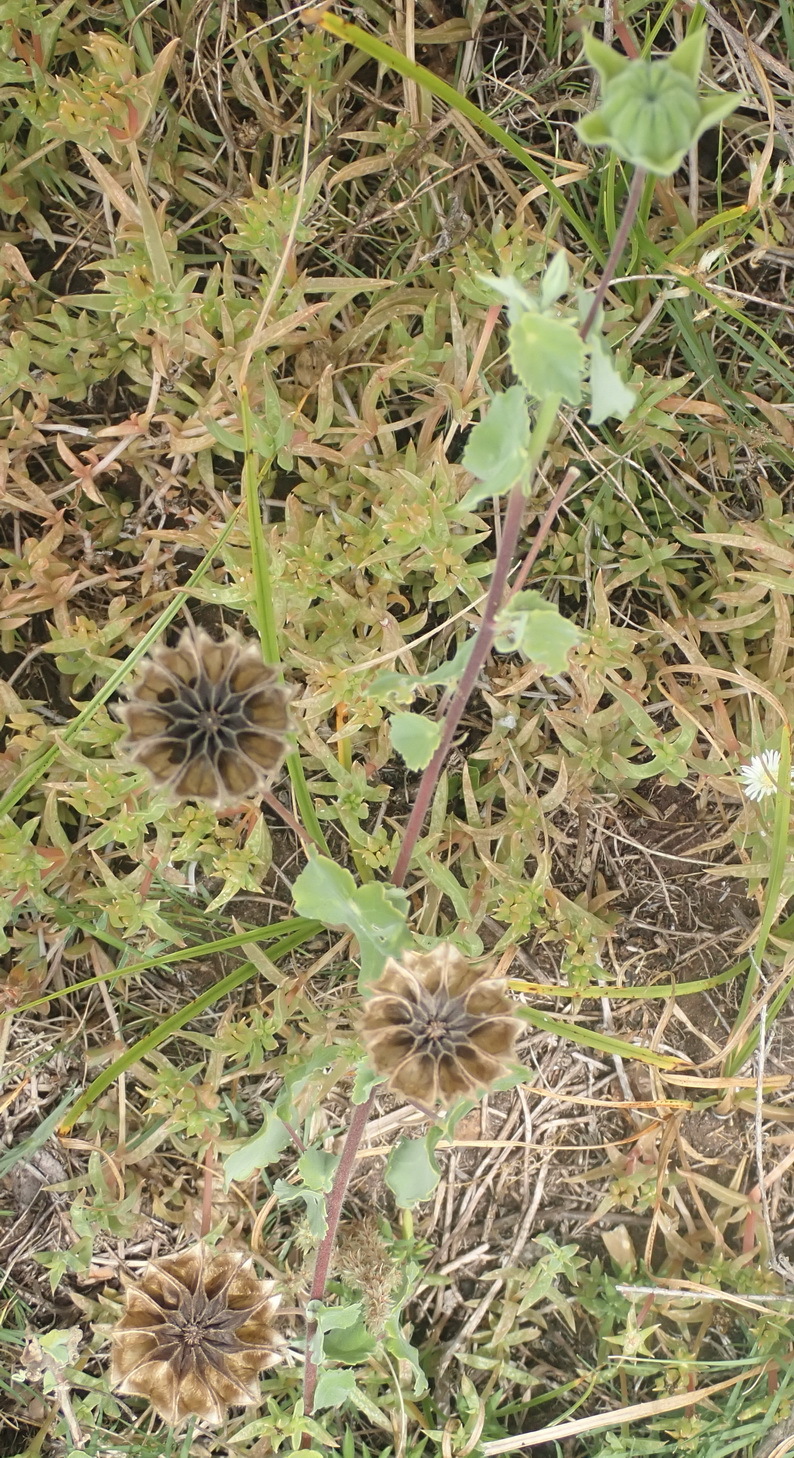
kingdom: Plantae
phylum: Tracheophyta
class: Magnoliopsida
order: Malvales
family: Malvaceae
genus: Abutilon
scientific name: Abutilon sonneratianum
